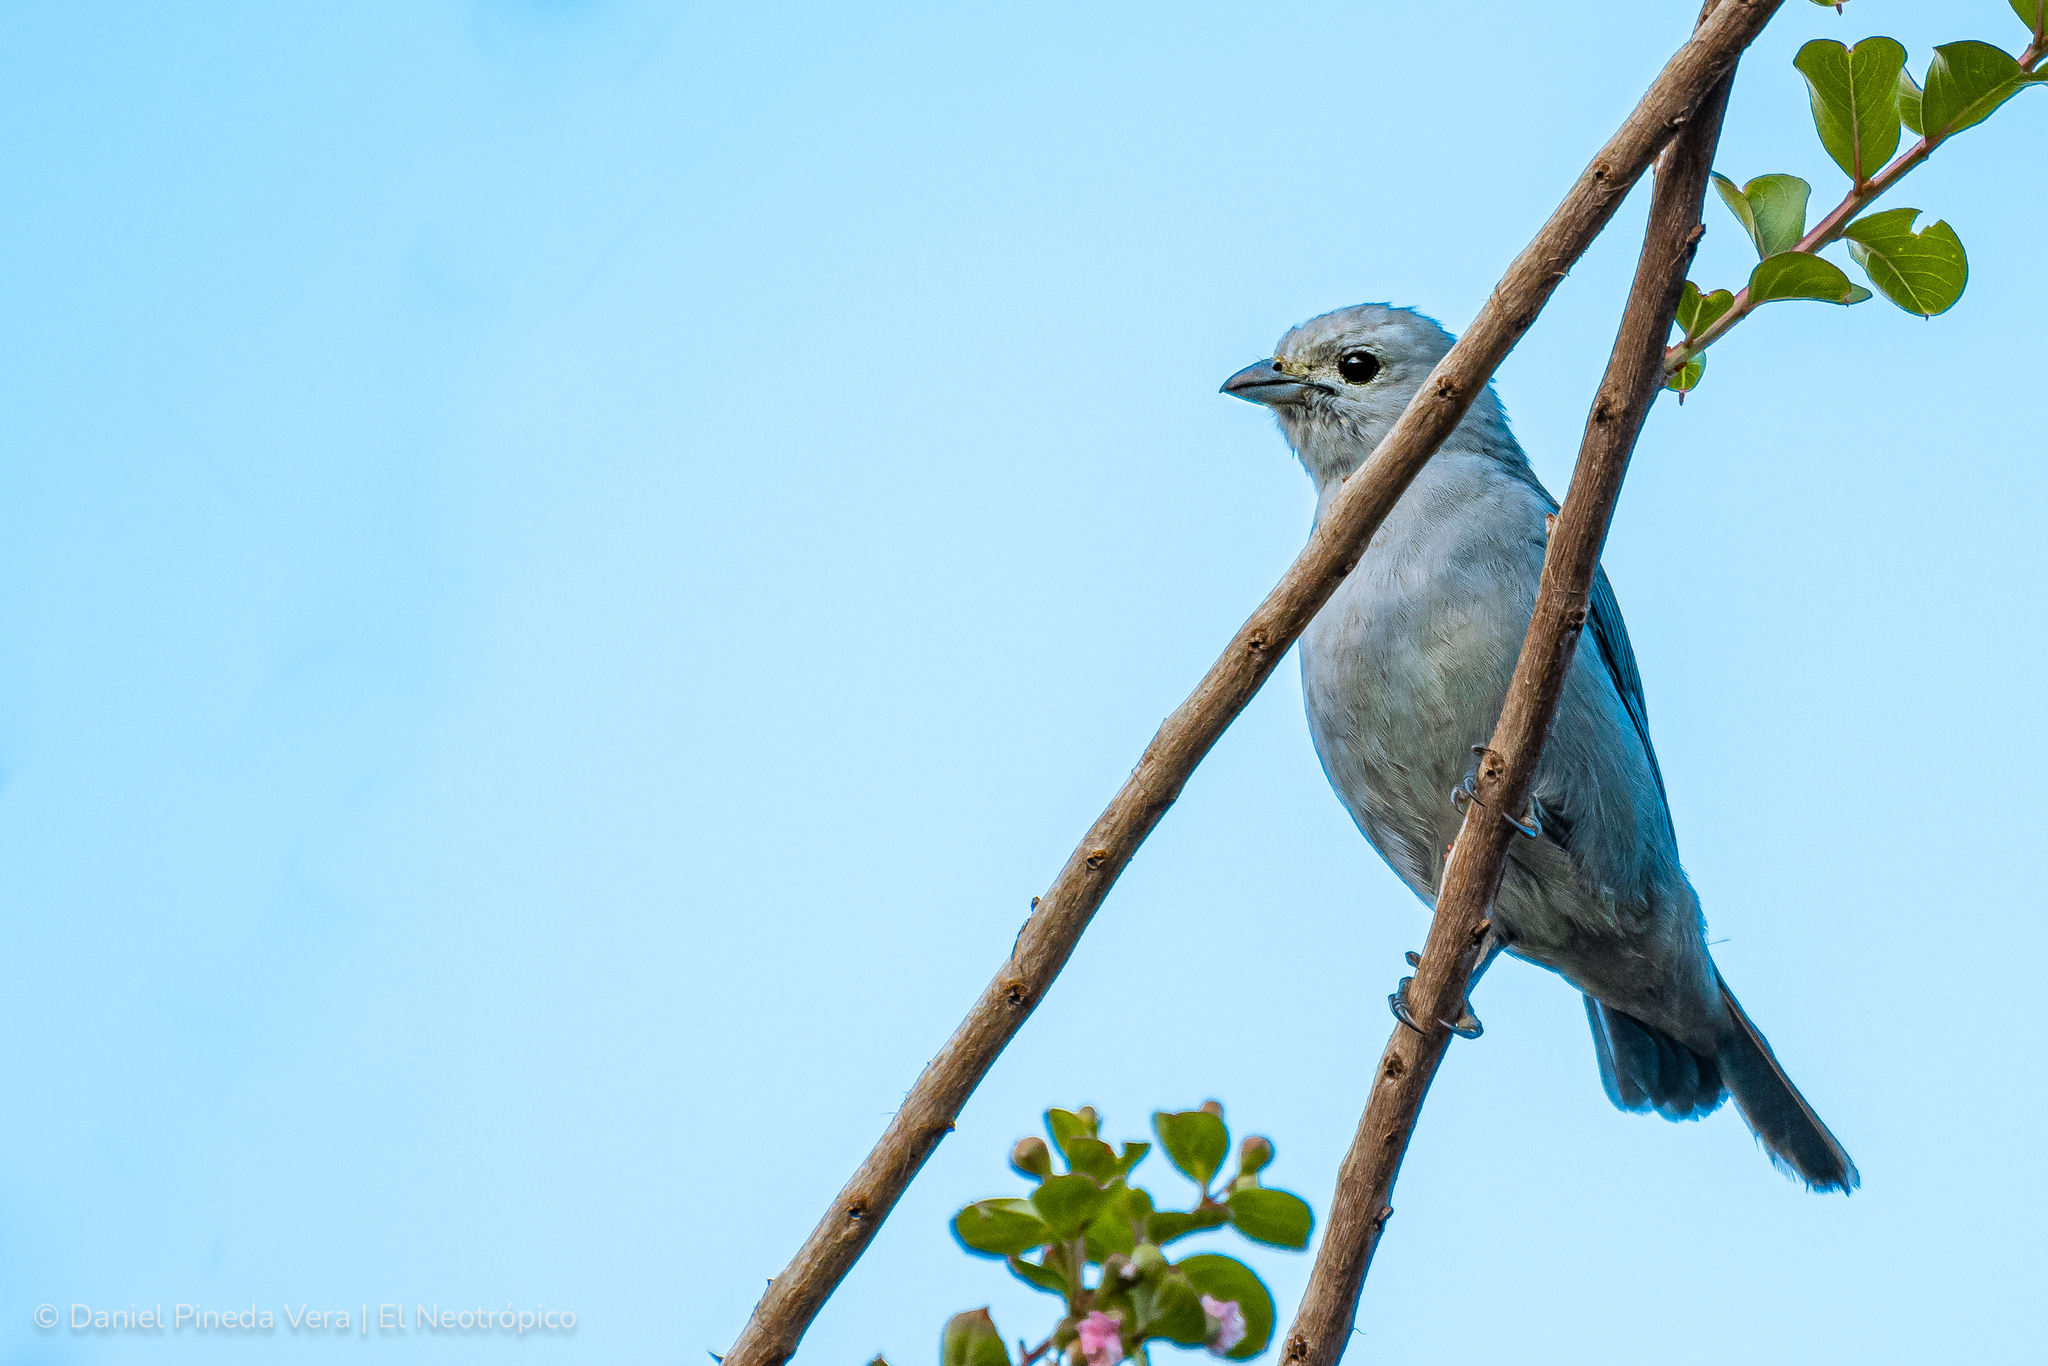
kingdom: Animalia
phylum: Chordata
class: Aves
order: Passeriformes
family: Thraupidae
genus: Thraupis
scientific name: Thraupis episcopus
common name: Blue-grey tanager
